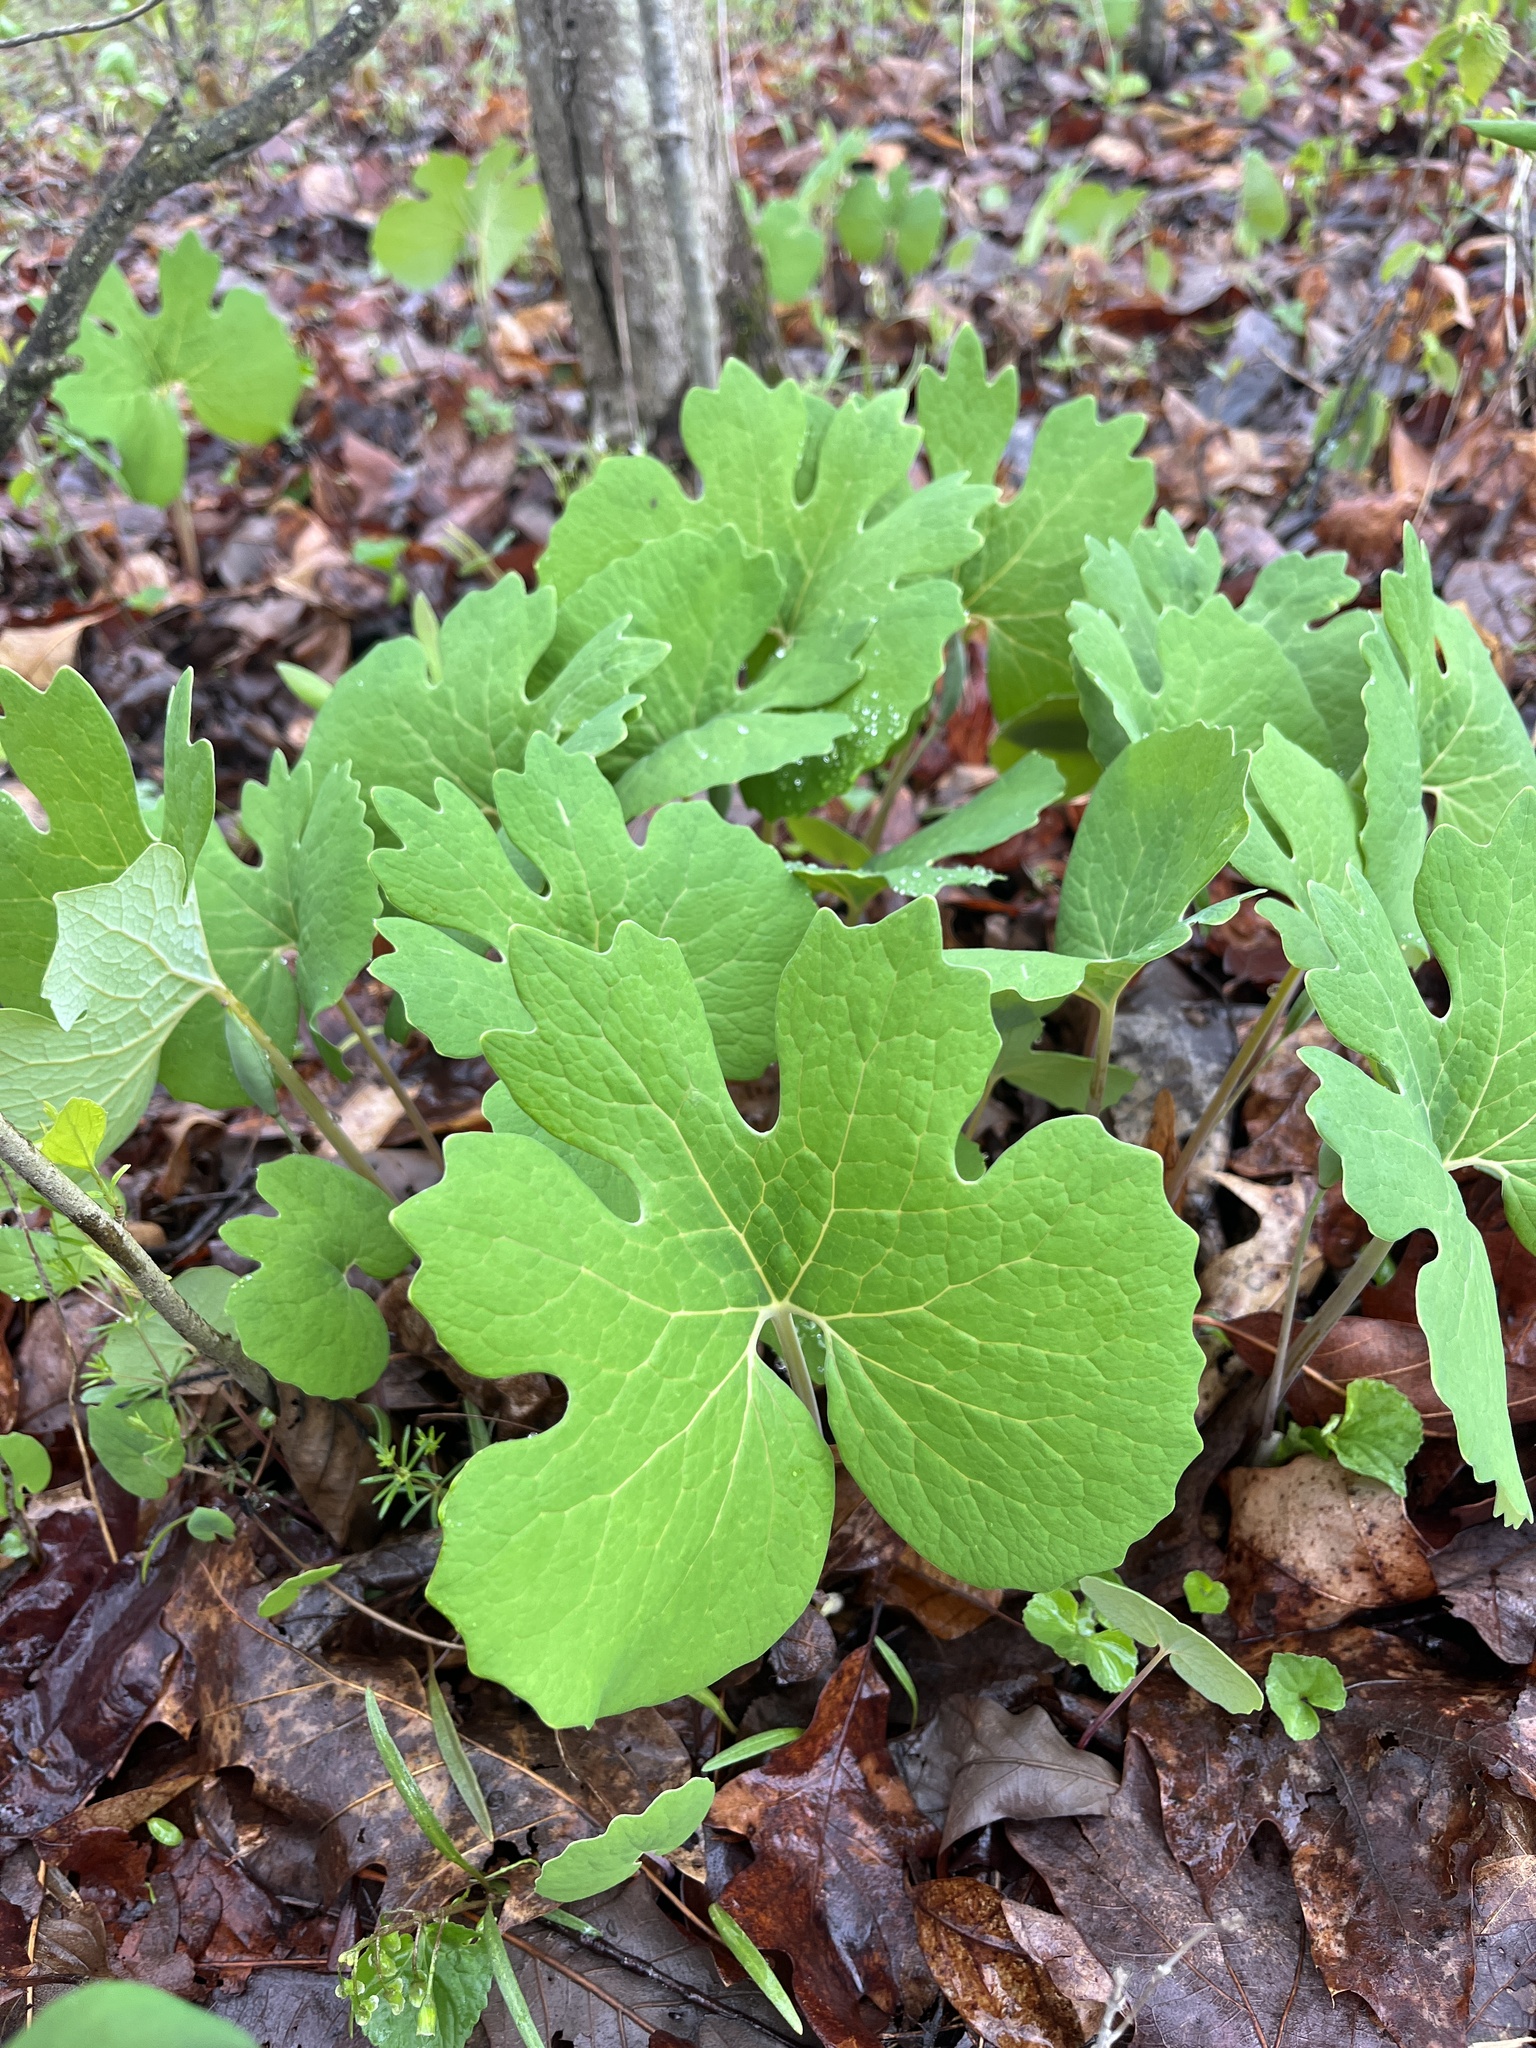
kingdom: Plantae
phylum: Tracheophyta
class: Magnoliopsida
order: Ranunculales
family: Papaveraceae
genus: Sanguinaria
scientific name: Sanguinaria canadensis
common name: Bloodroot
